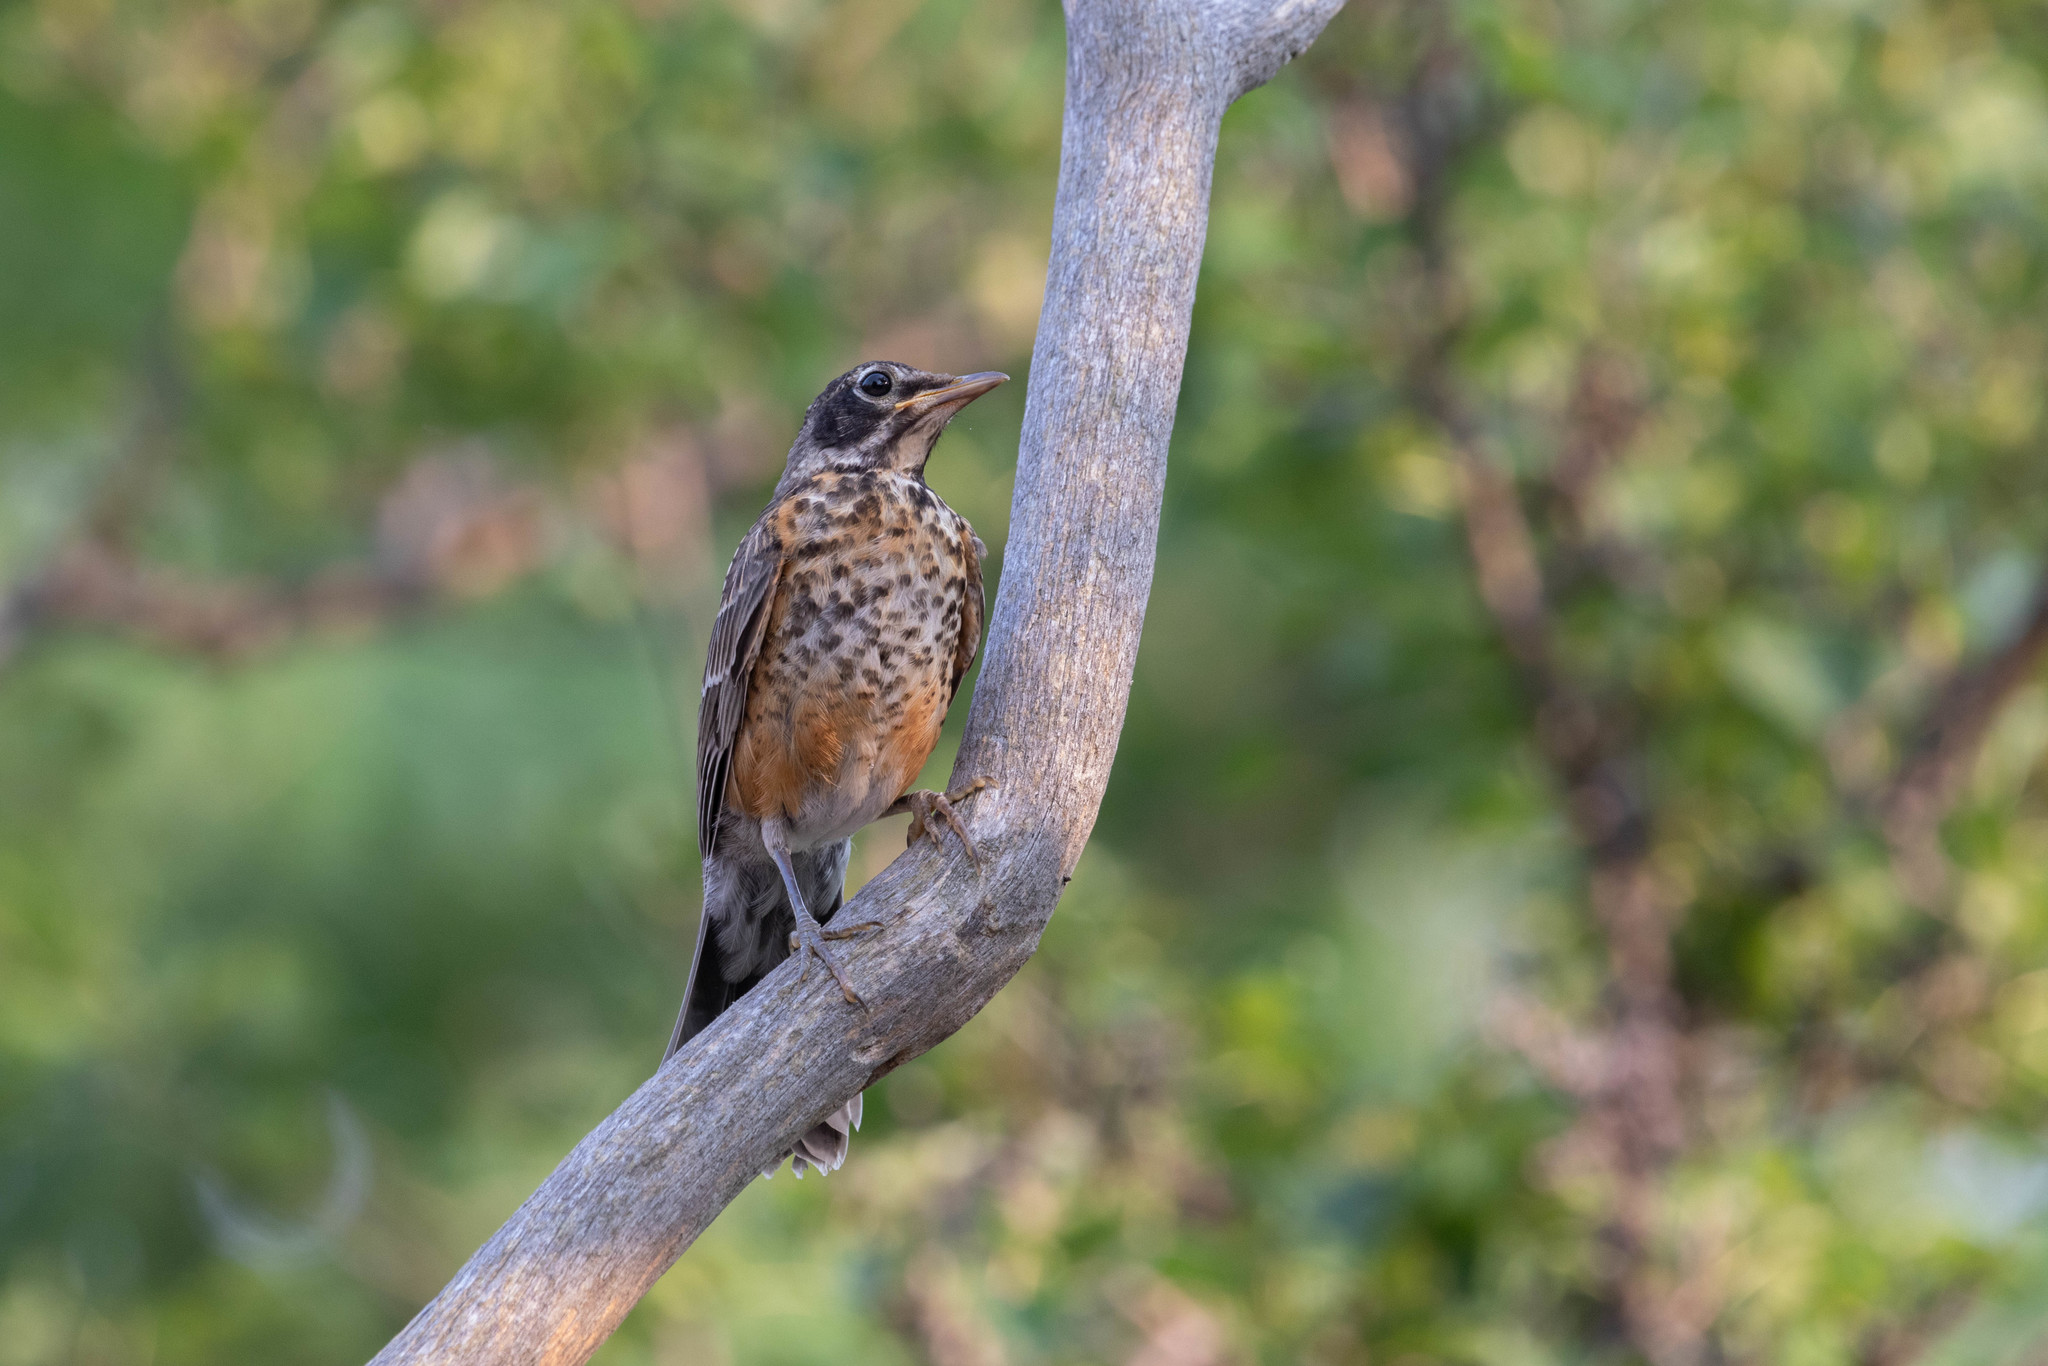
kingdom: Animalia
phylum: Chordata
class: Aves
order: Passeriformes
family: Turdidae
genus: Turdus
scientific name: Turdus migratorius
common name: American robin
